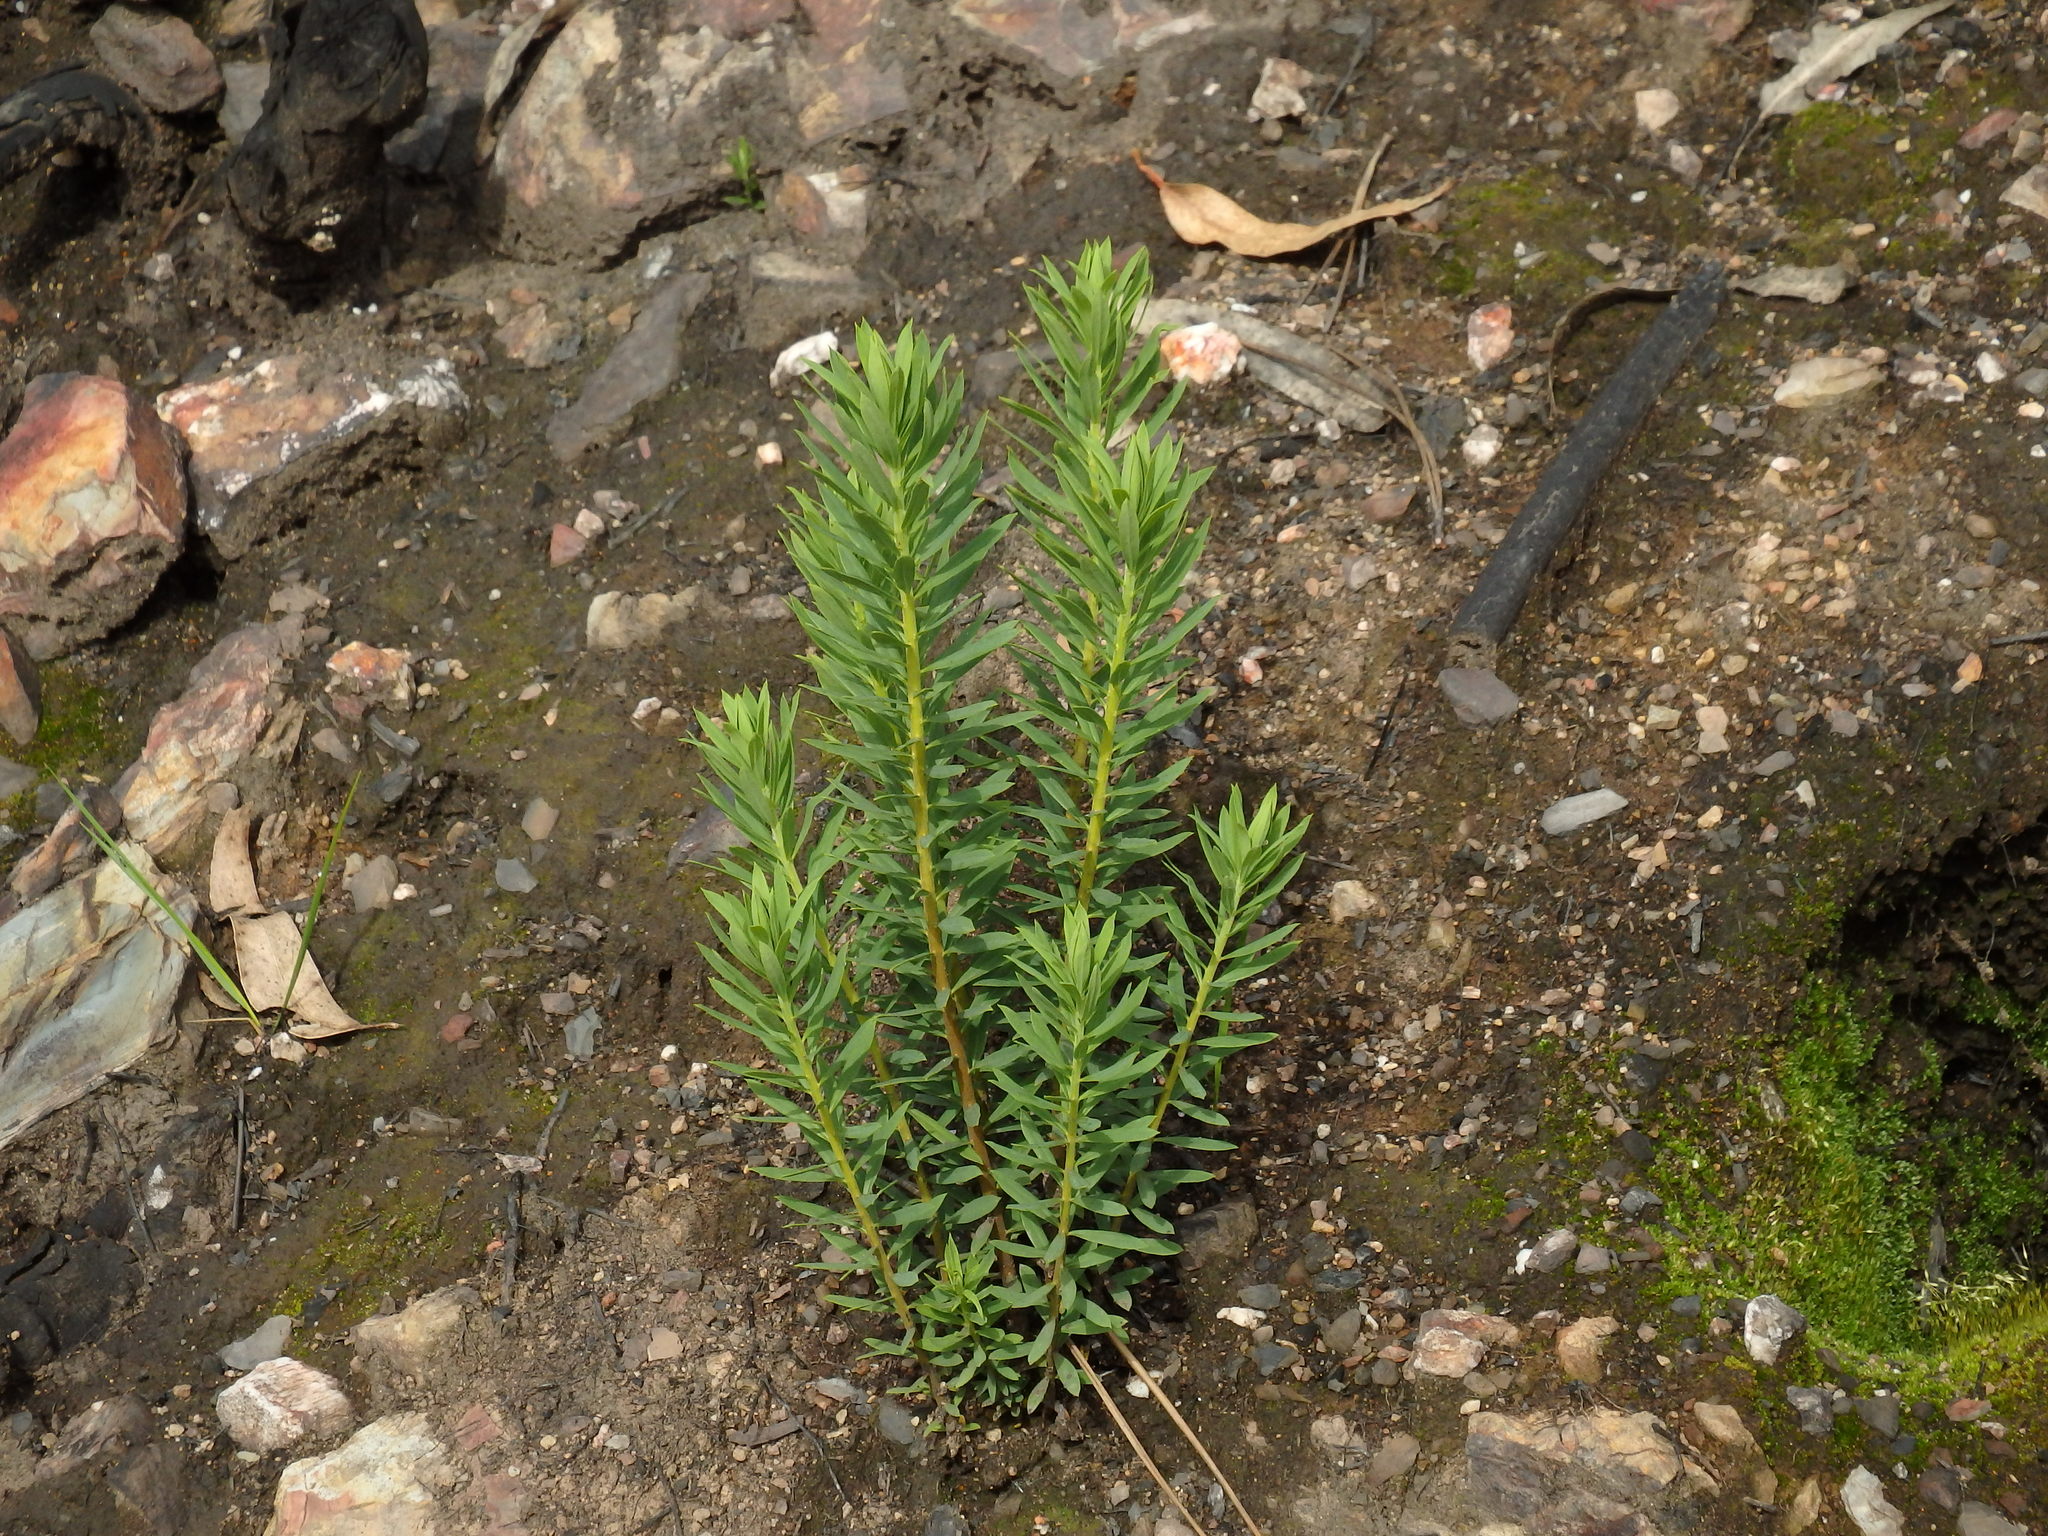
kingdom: Plantae
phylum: Tracheophyta
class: Magnoliopsida
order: Malvales
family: Thymelaeaceae
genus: Daphne
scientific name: Daphne gnidium
